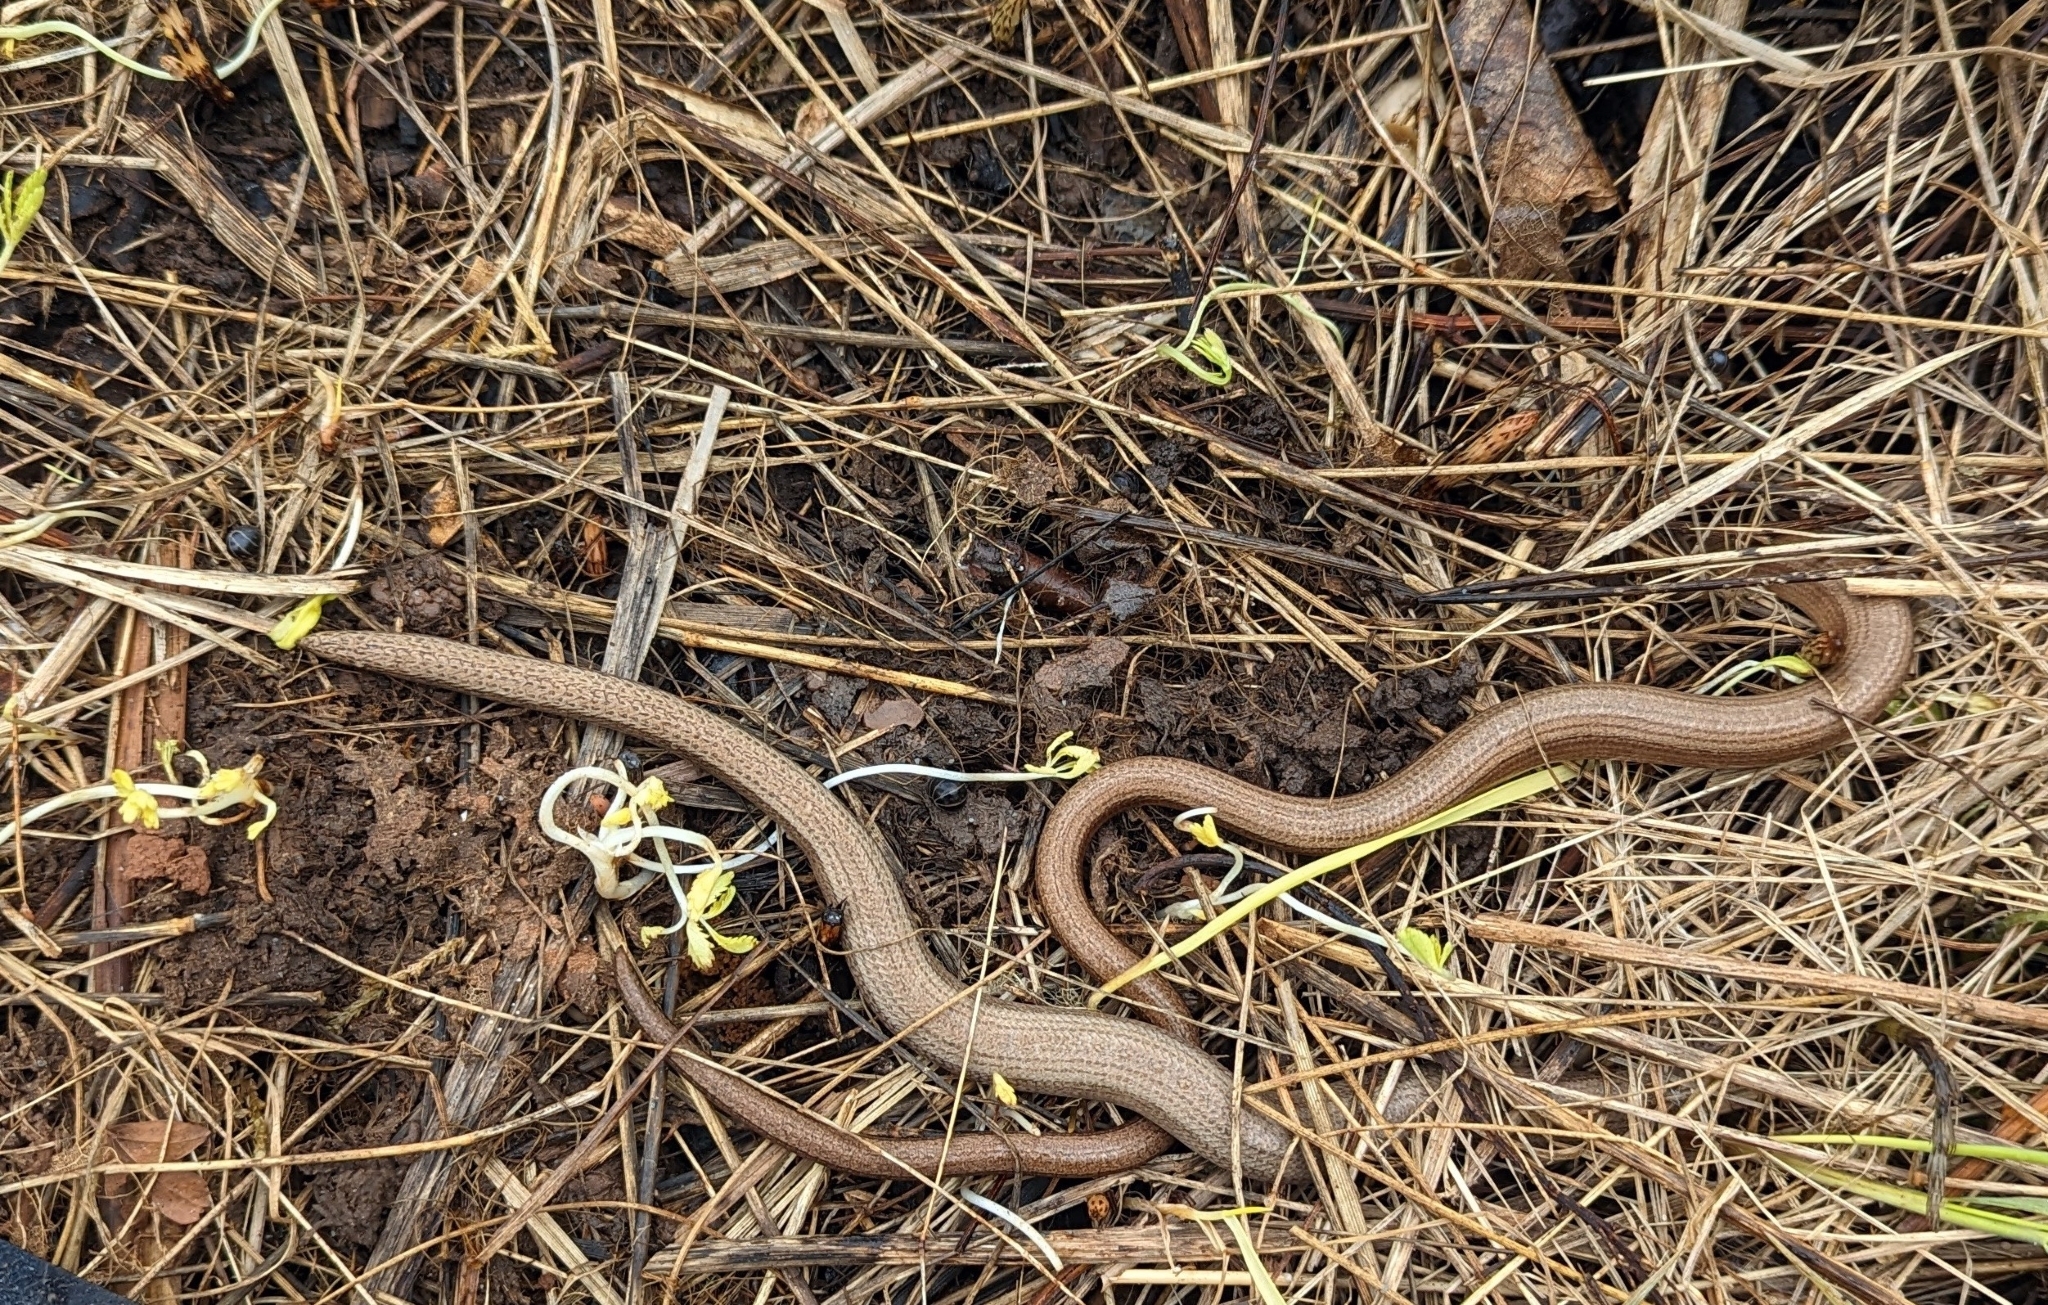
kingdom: Animalia
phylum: Chordata
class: Squamata
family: Anguidae
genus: Anguis
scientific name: Anguis fragilis
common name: Slow worm
